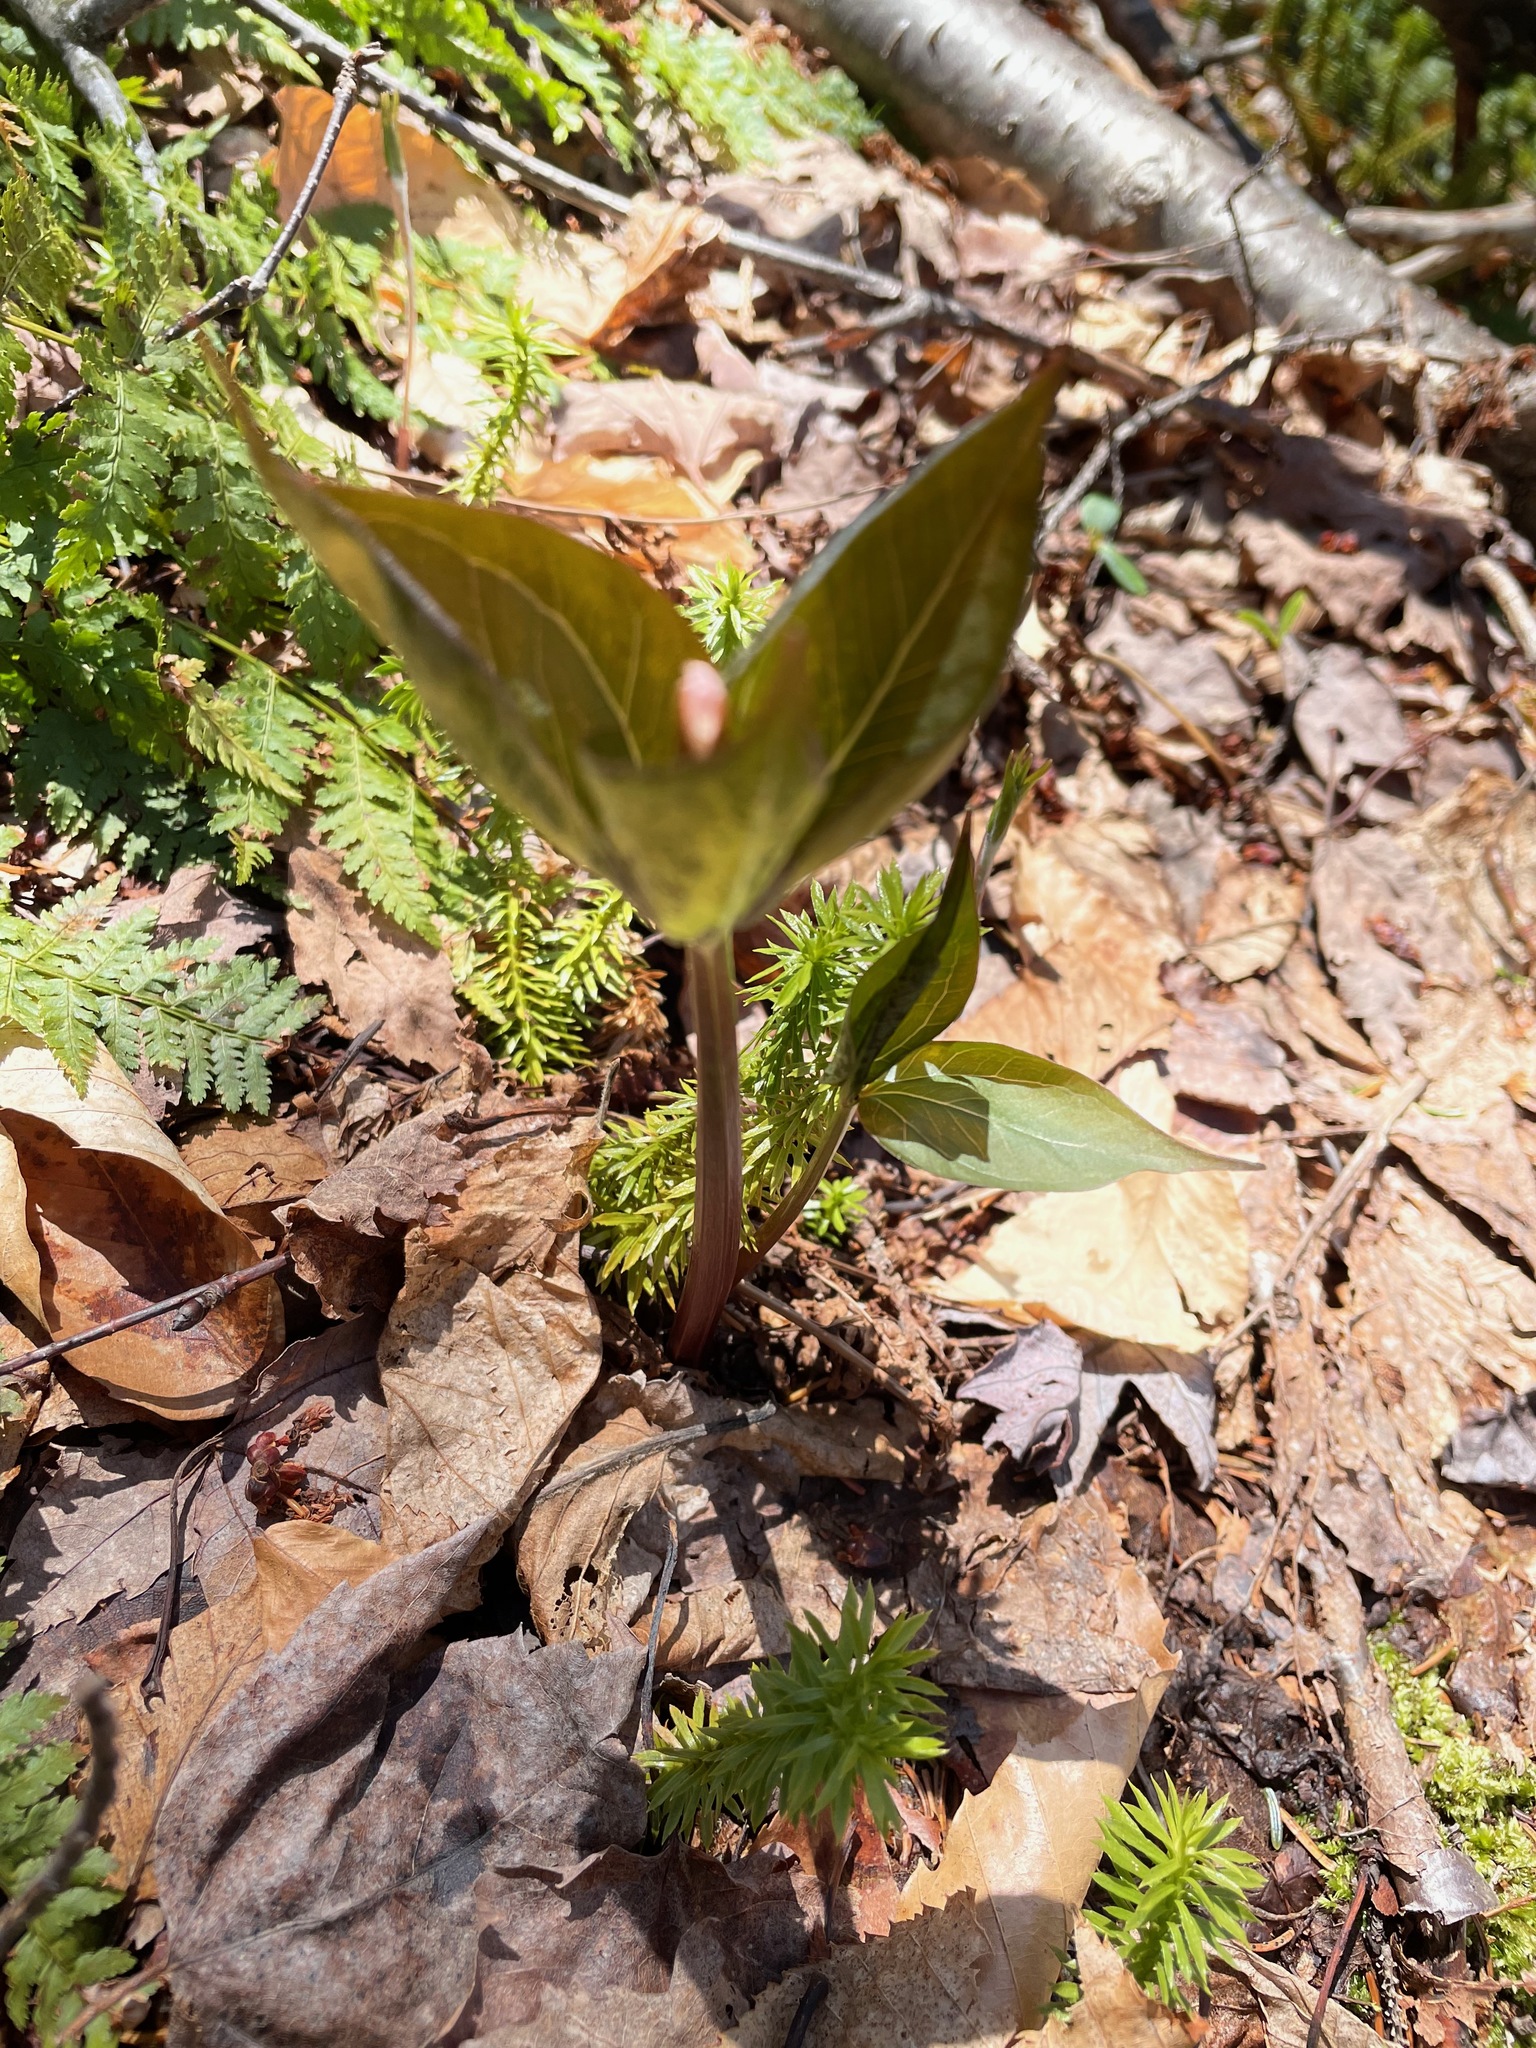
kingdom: Plantae
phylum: Tracheophyta
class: Liliopsida
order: Liliales
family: Melanthiaceae
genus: Trillium
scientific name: Trillium undulatum
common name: Paint trillium
